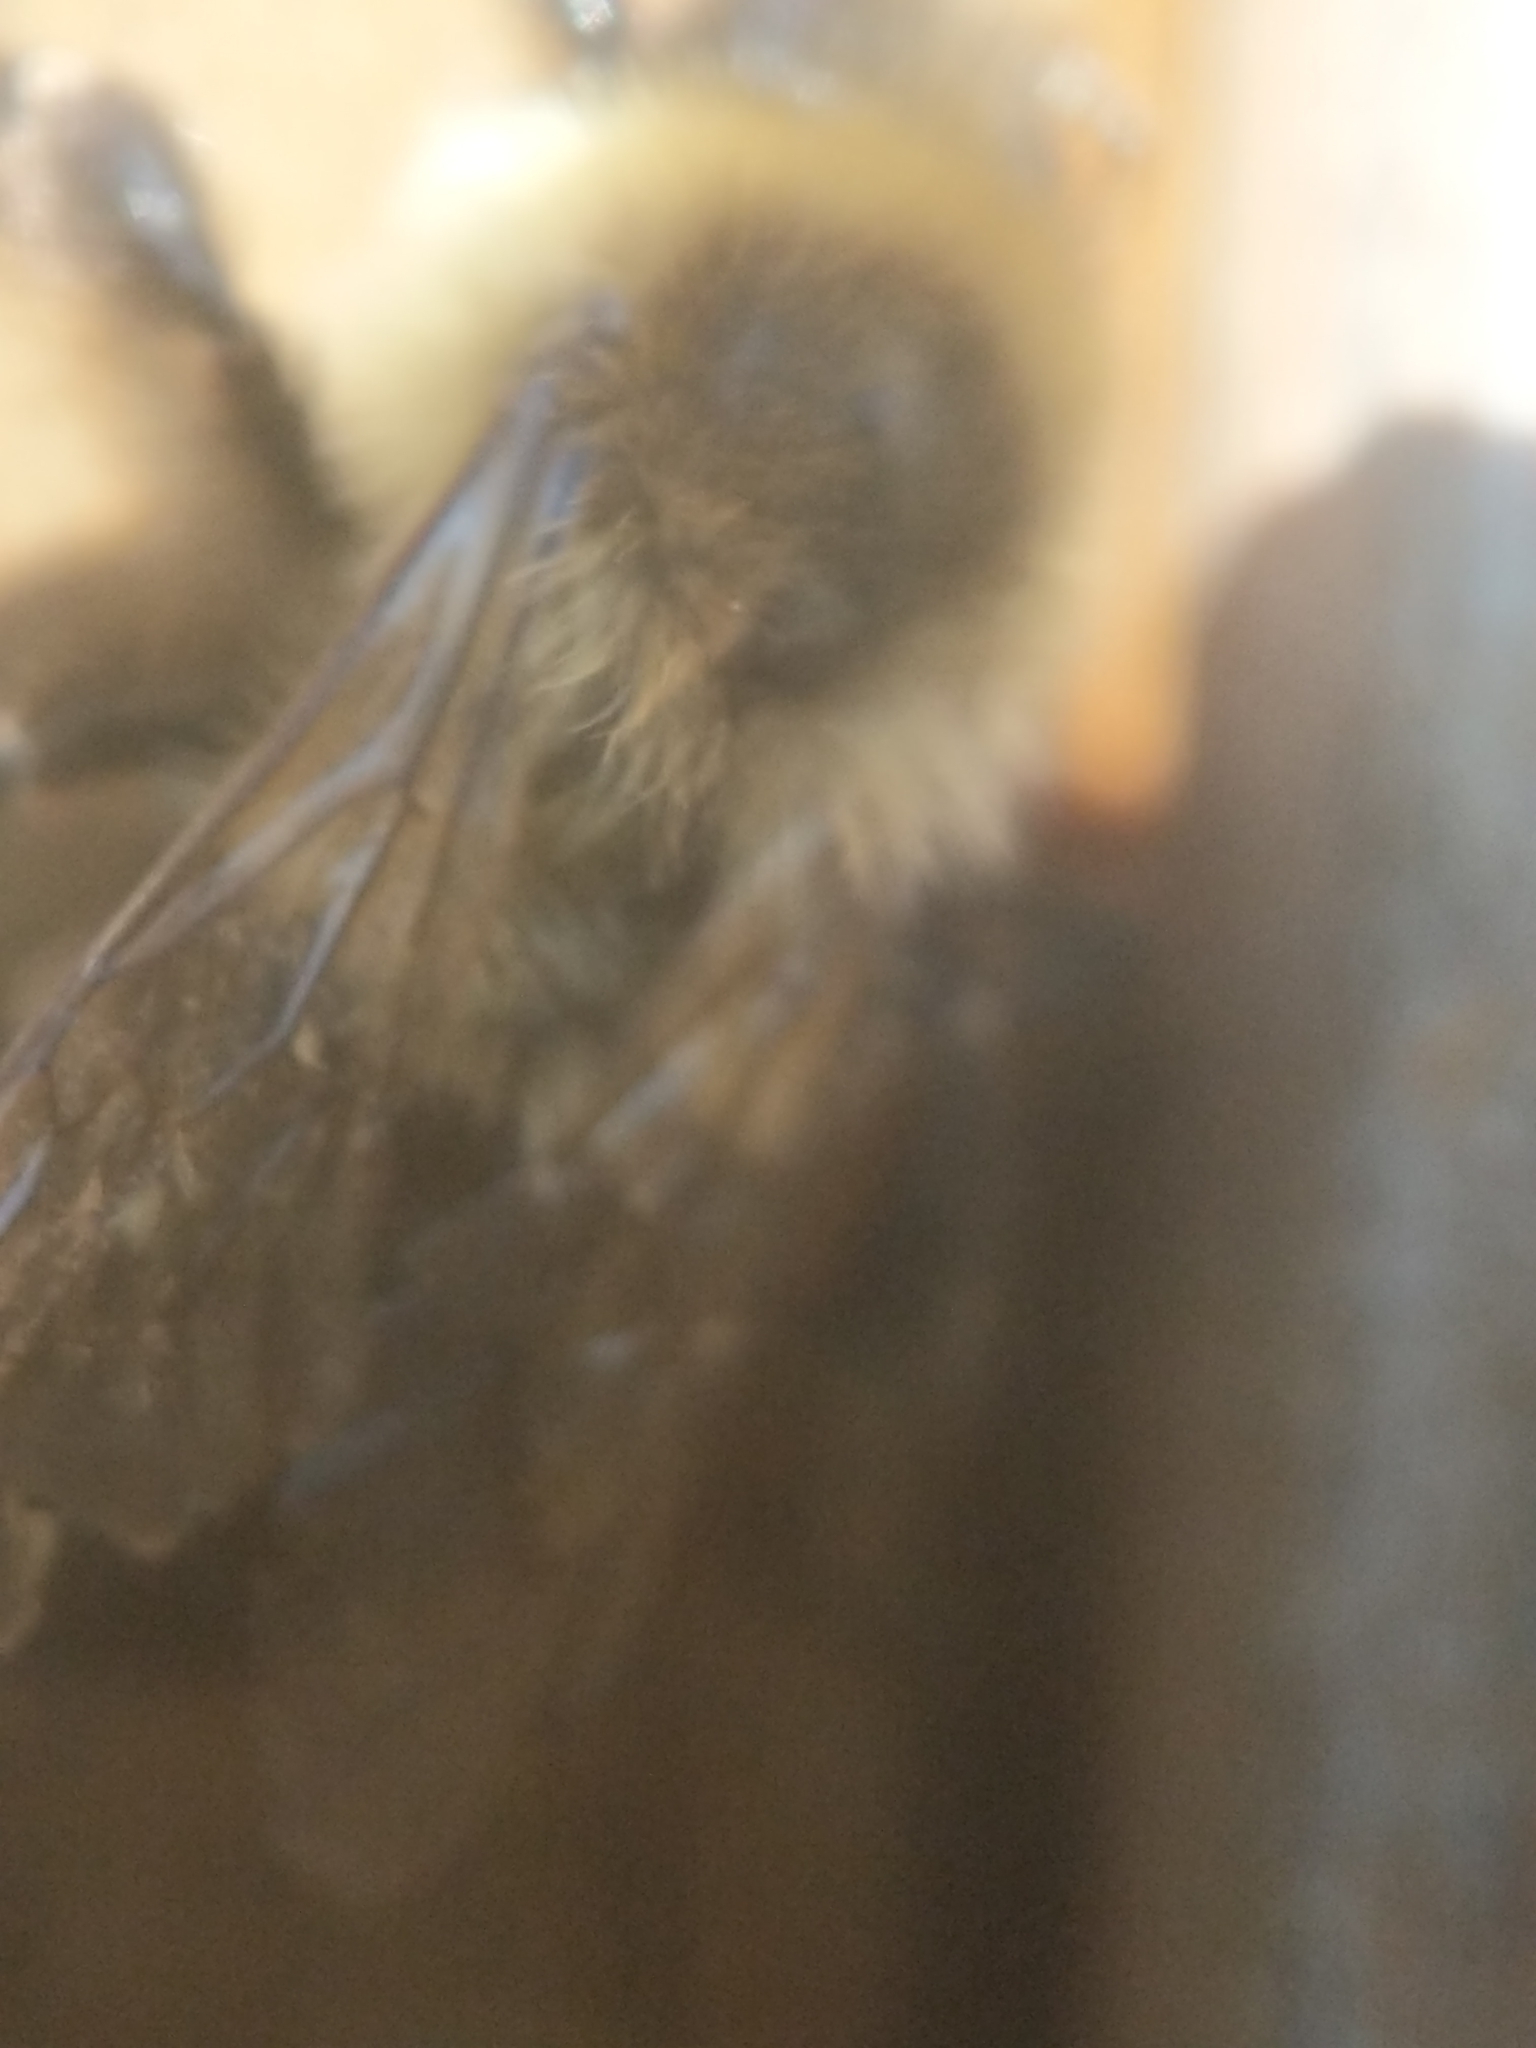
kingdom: Animalia
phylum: Arthropoda
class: Insecta
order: Hymenoptera
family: Apidae
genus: Bombus
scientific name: Bombus impatiens
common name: Common eastern bumble bee
